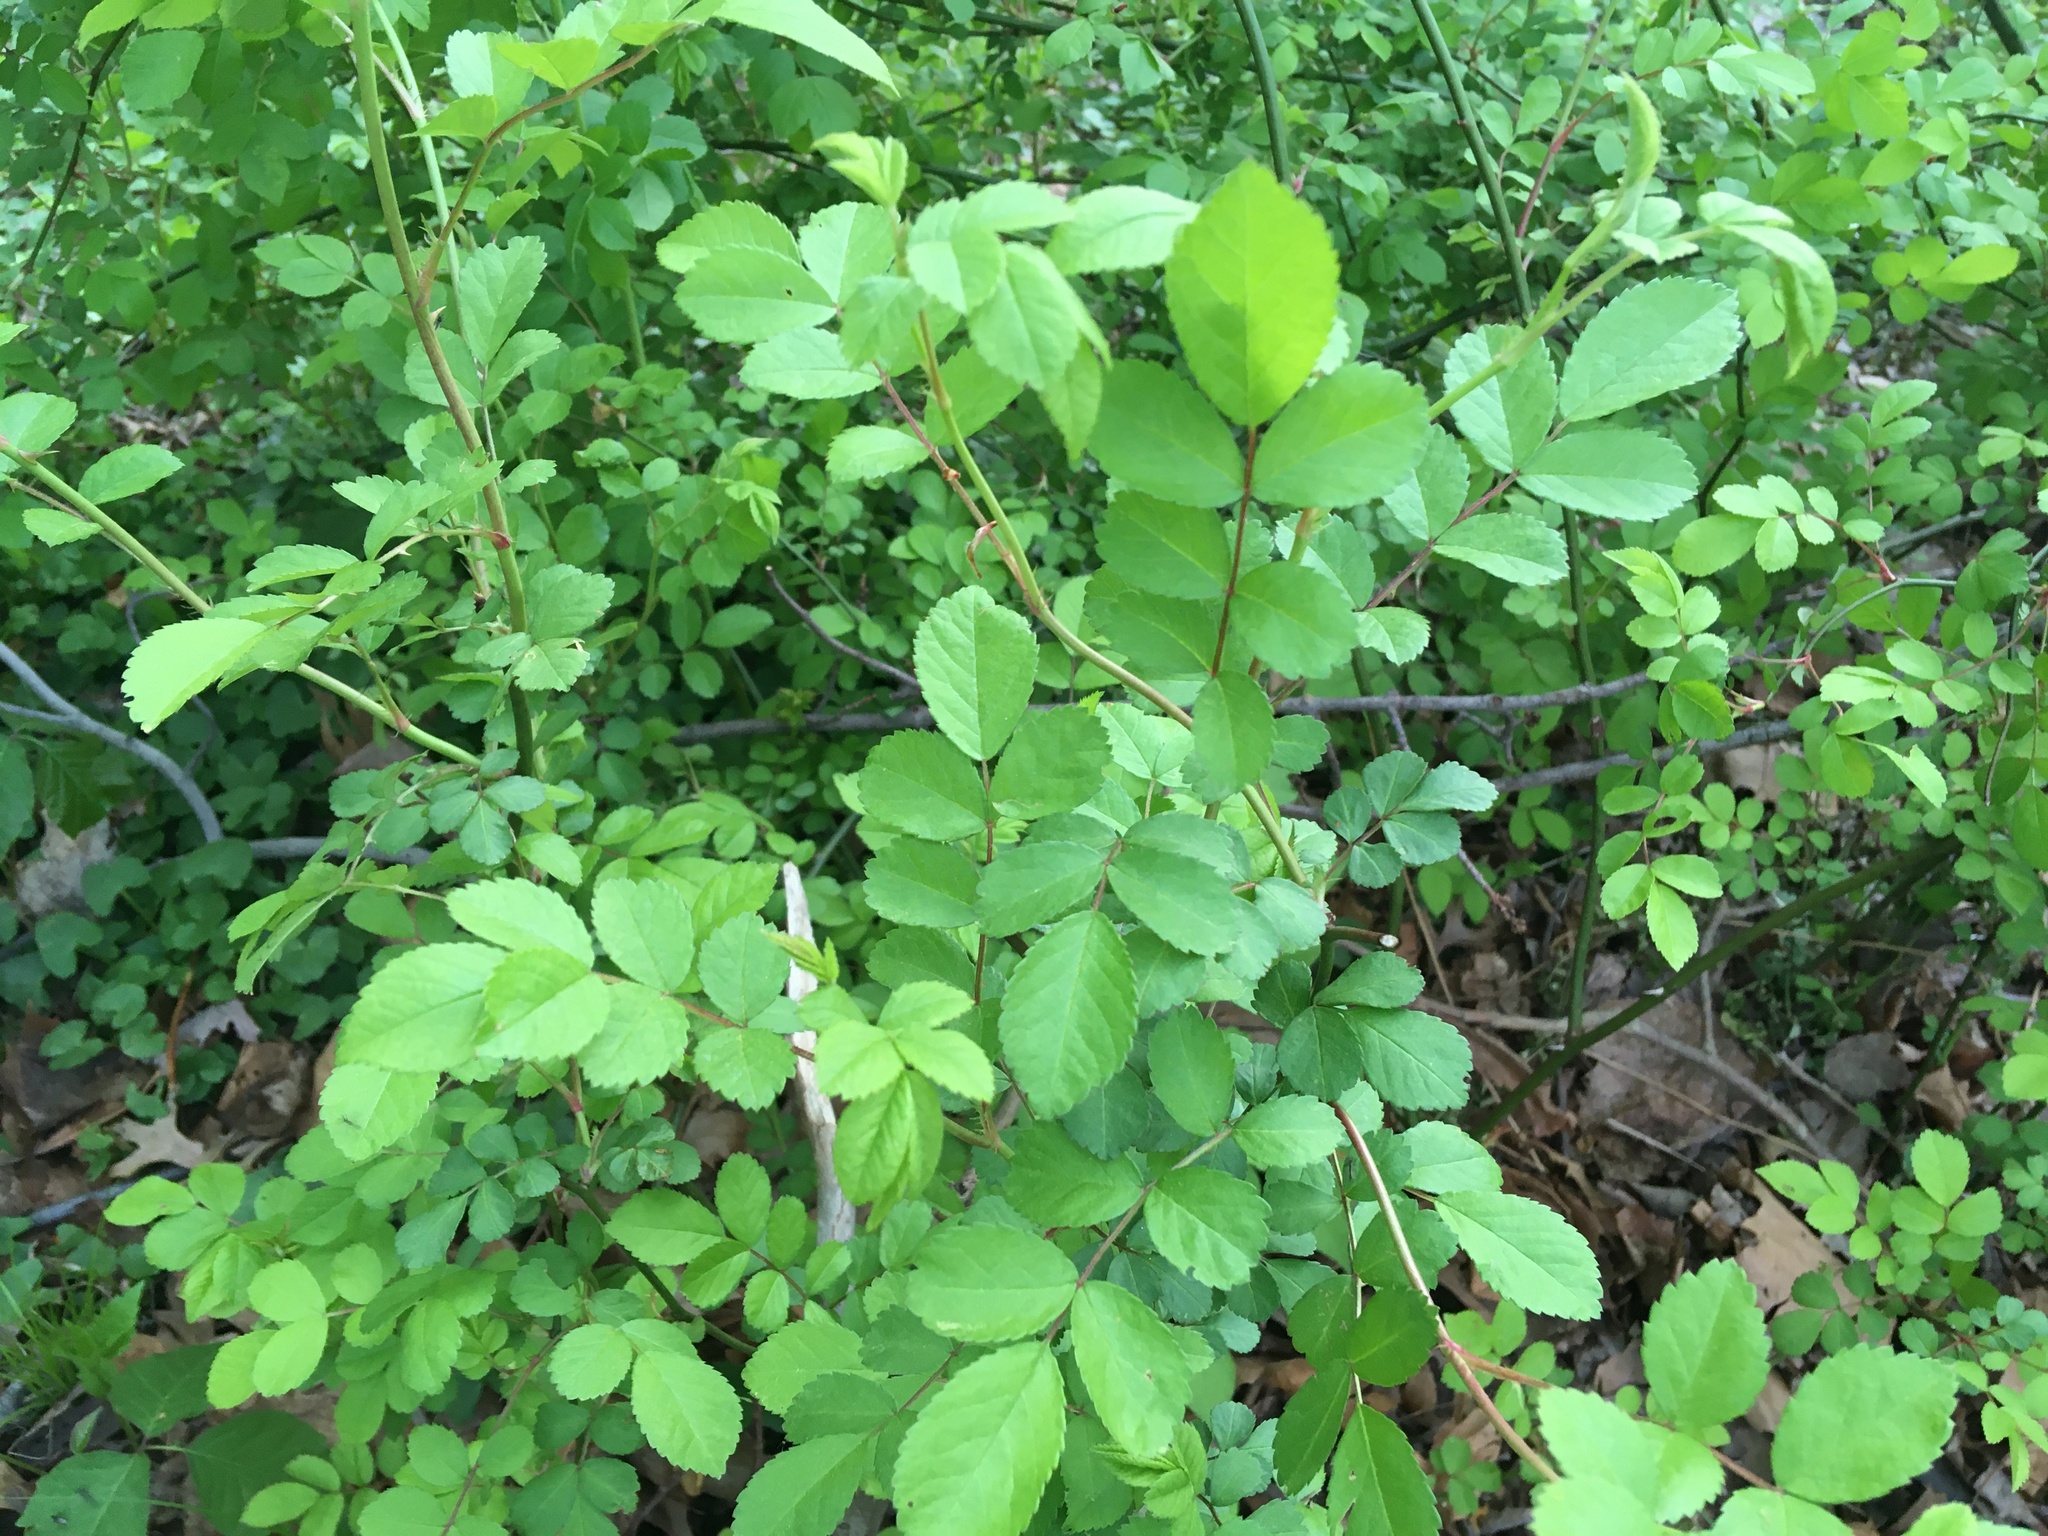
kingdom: Plantae
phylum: Tracheophyta
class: Magnoliopsida
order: Rosales
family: Rosaceae
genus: Rosa
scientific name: Rosa multiflora
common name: Multiflora rose
